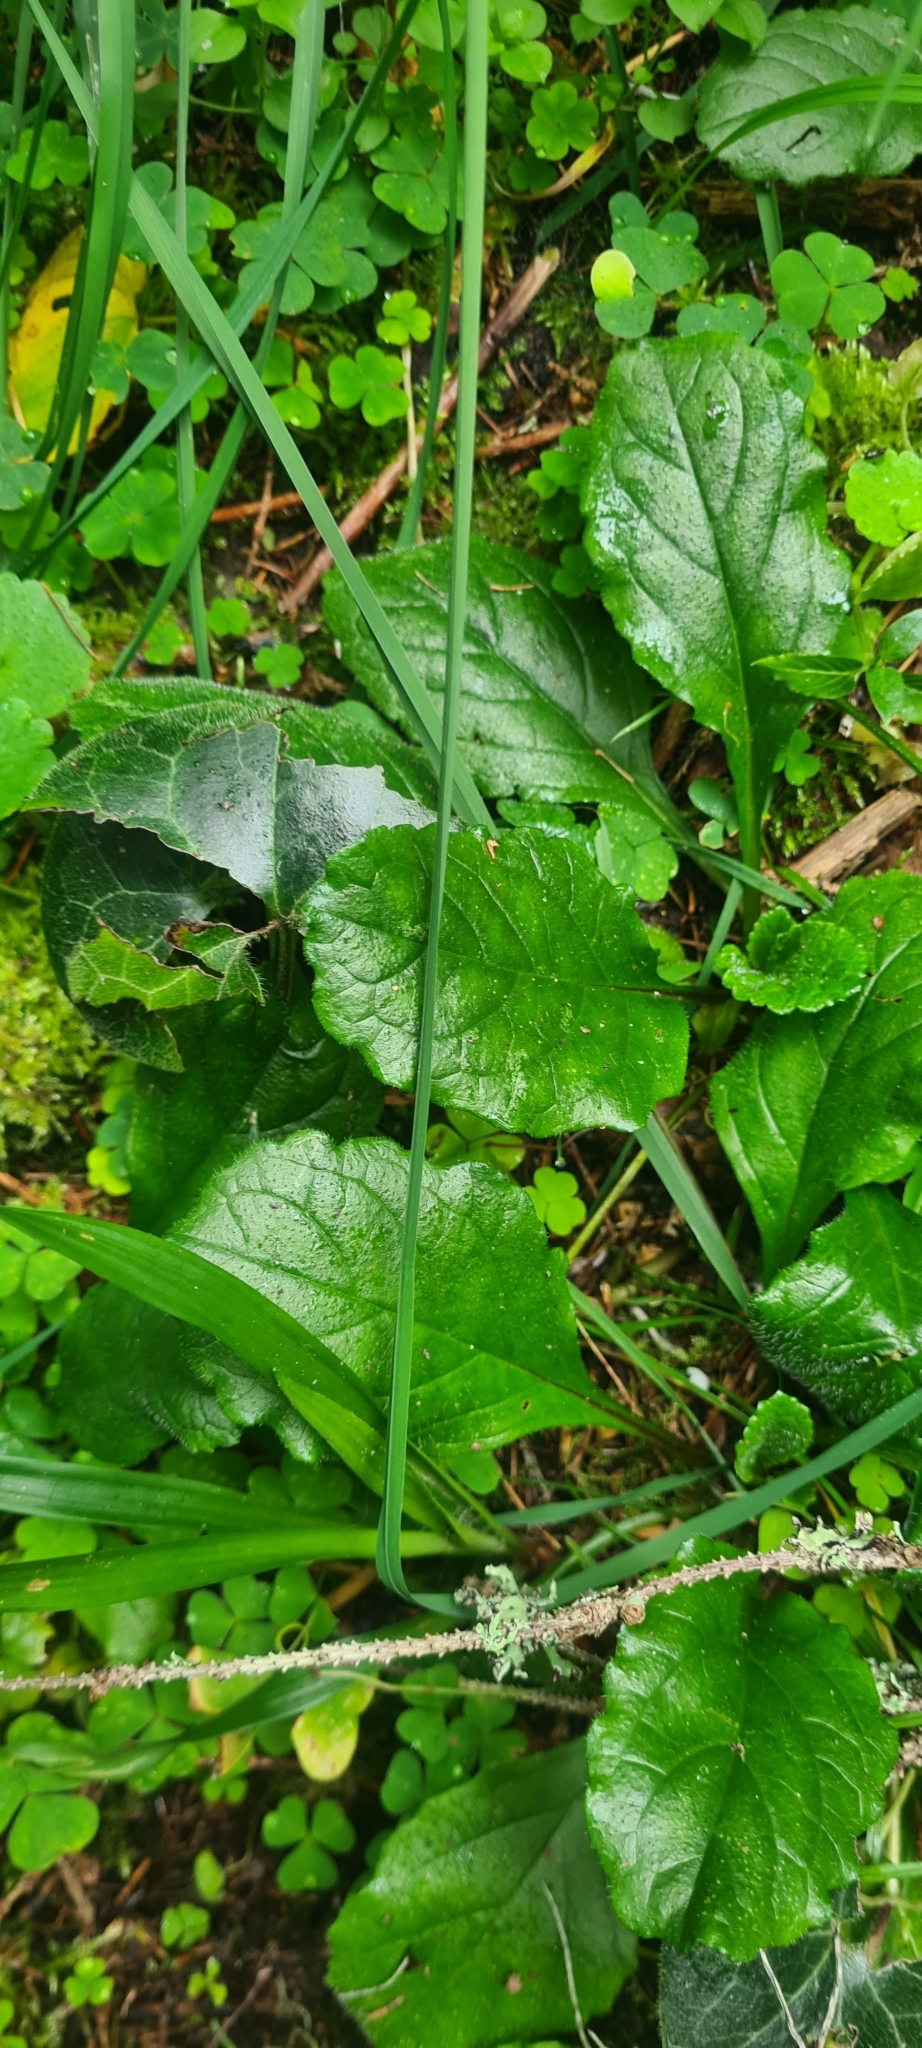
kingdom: Plantae
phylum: Tracheophyta
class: Magnoliopsida
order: Lamiales
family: Lamiaceae
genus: Ajuga
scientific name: Ajuga reptans
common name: Bugle
